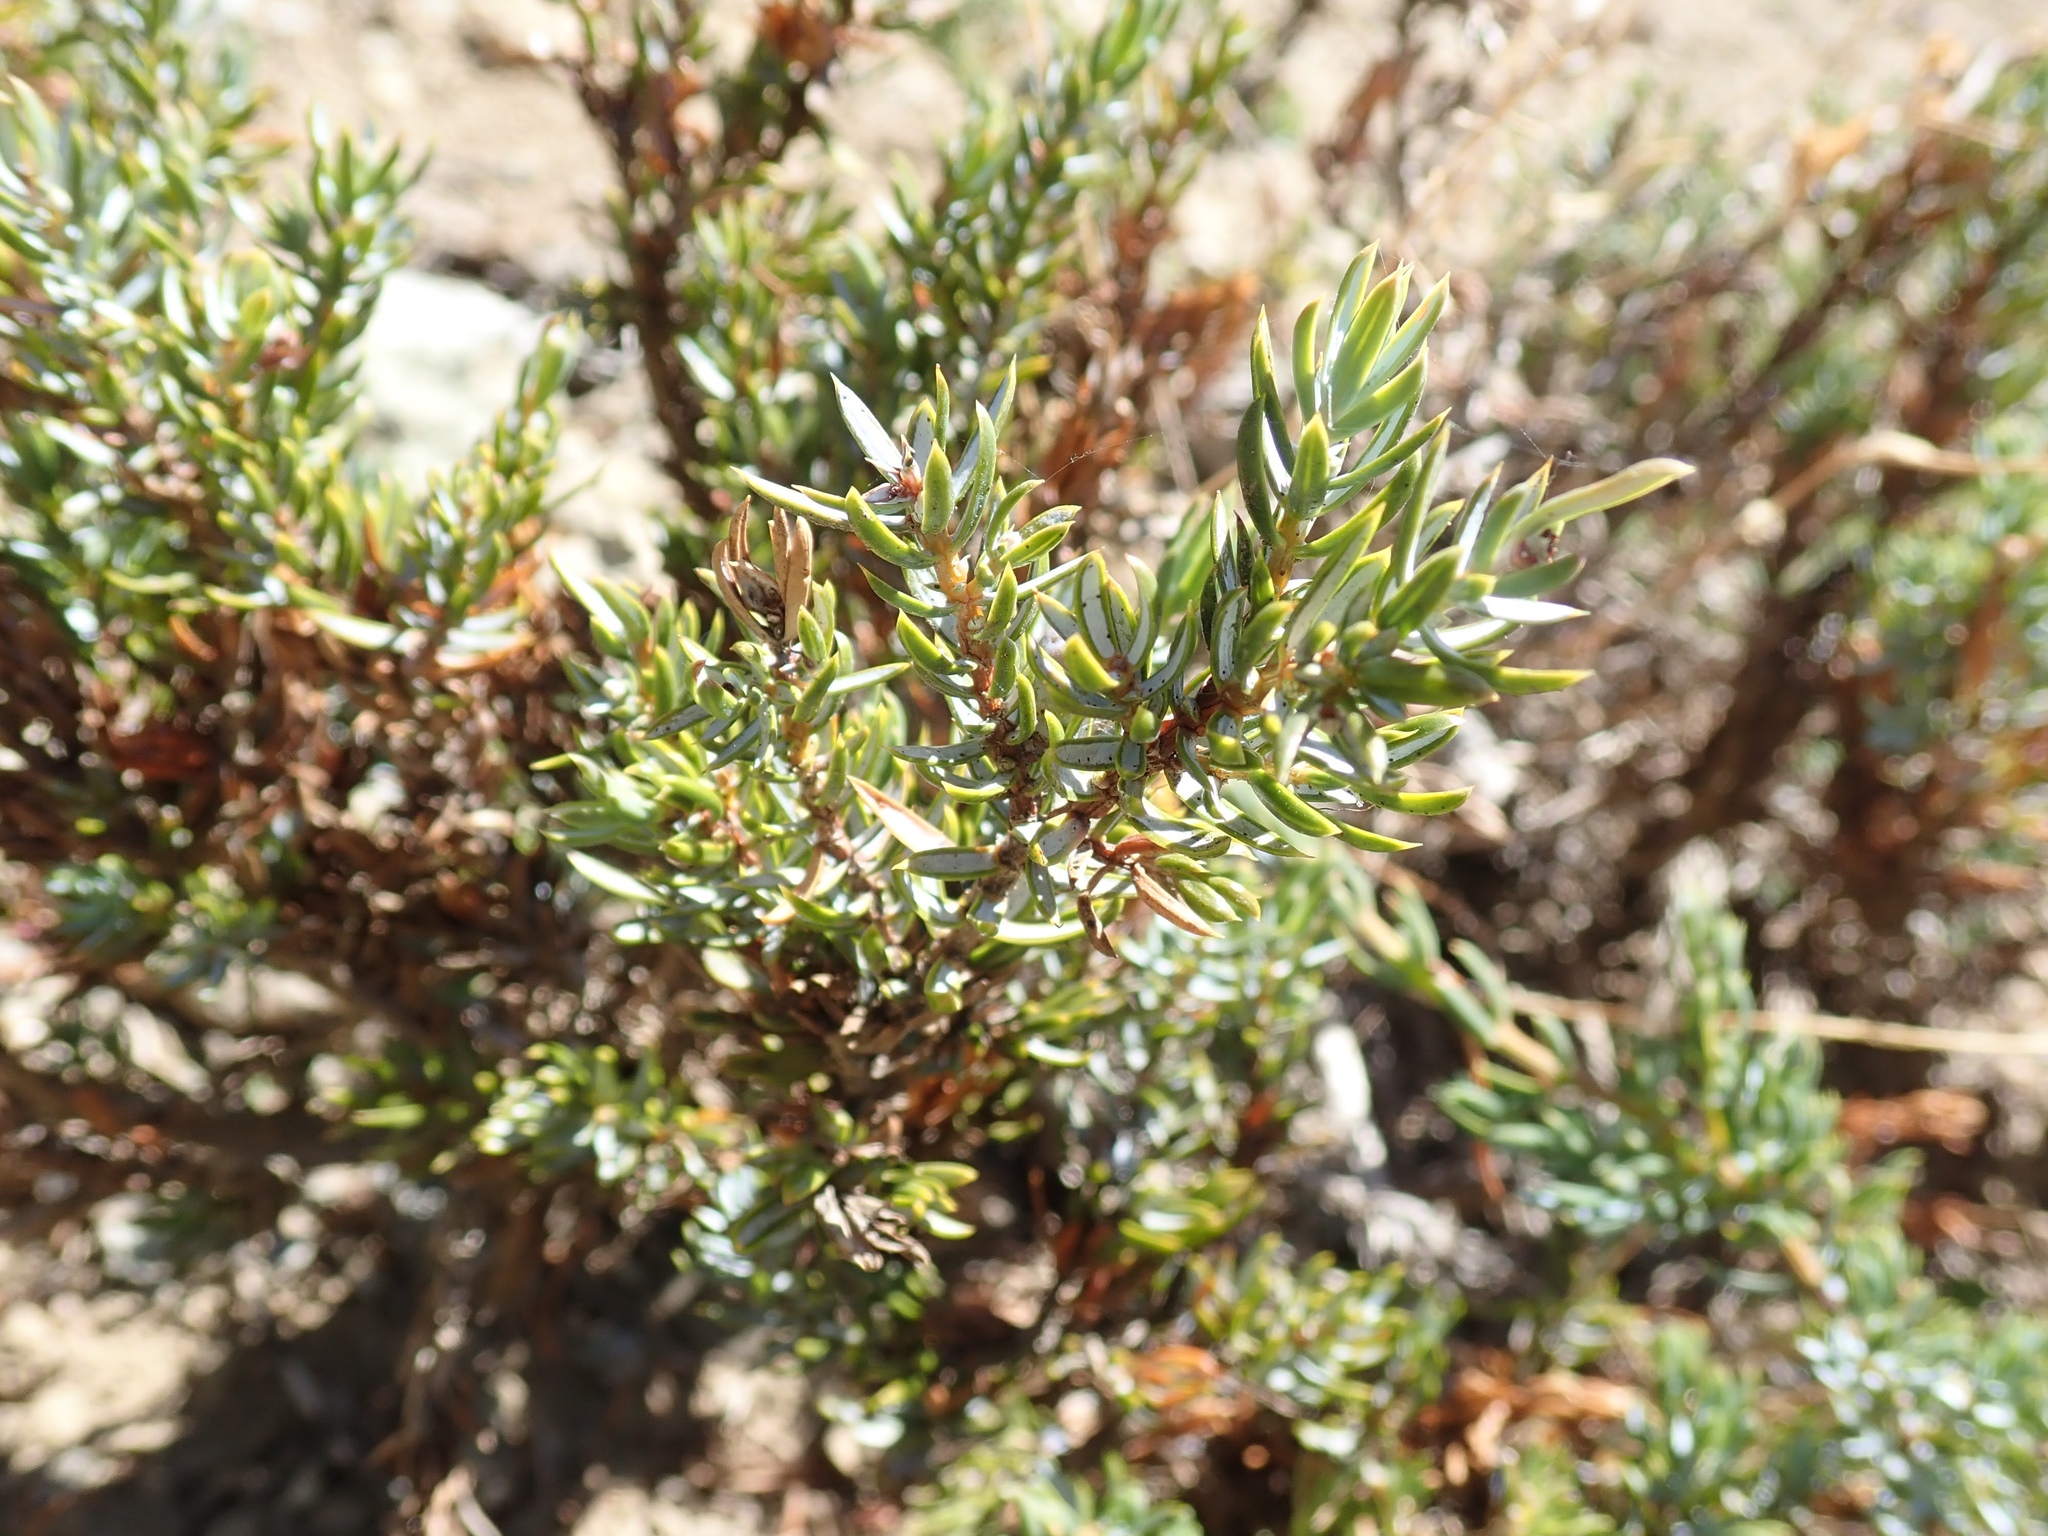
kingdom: Plantae
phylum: Tracheophyta
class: Pinopsida
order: Pinales
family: Cupressaceae
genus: Juniperus
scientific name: Juniperus communis
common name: Common juniper
